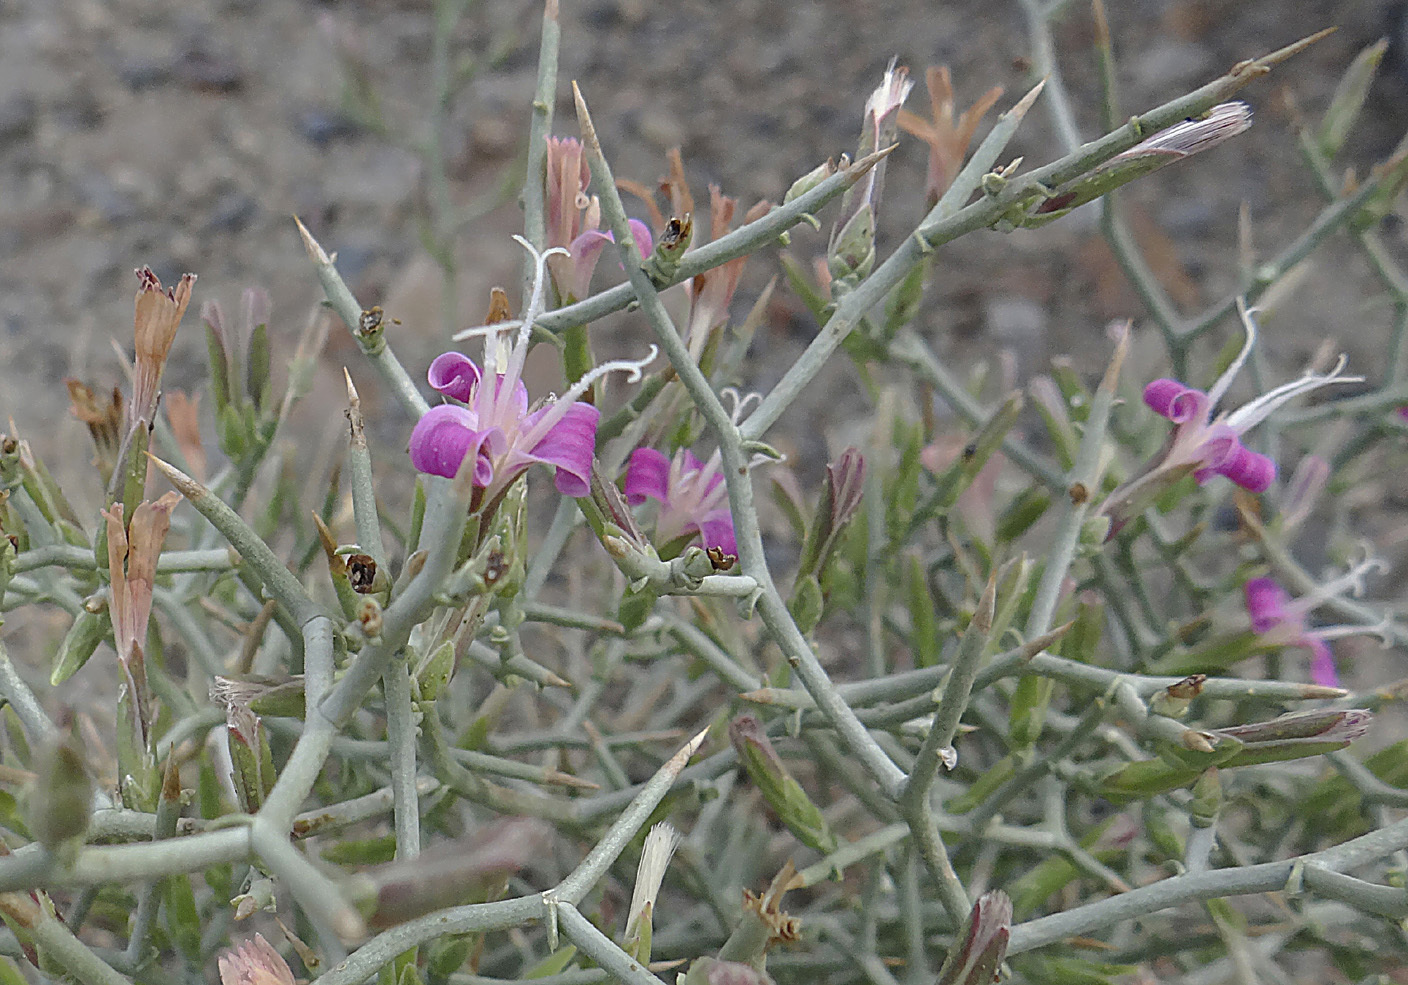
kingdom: Plantae
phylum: Tracheophyta
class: Magnoliopsida
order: Asterales
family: Asteraceae
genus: Pleiacanthus
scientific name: Pleiacanthus spinosus
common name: Thorny skeleton-weed
